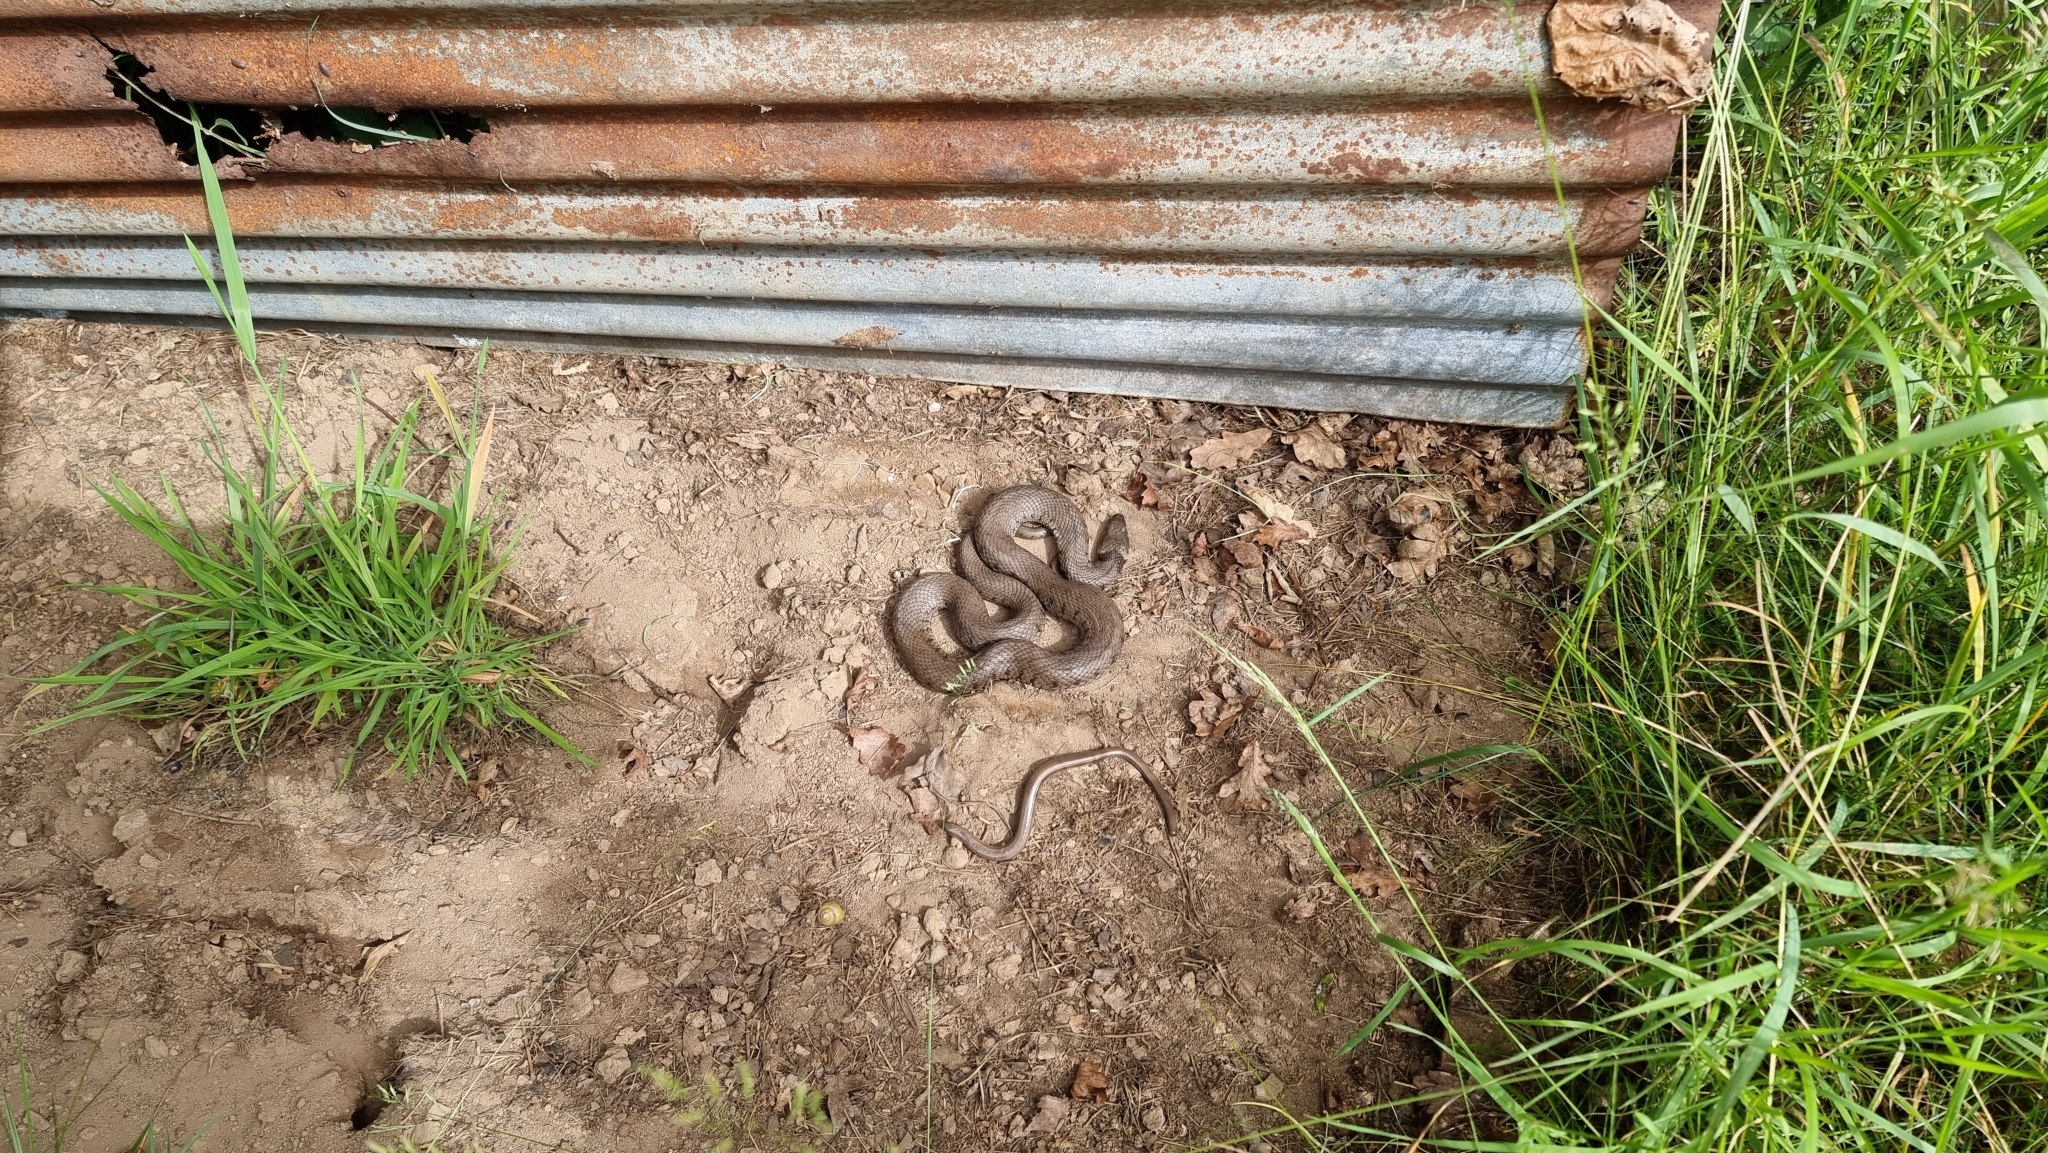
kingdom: Animalia
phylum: Chordata
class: Squamata
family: Colubridae
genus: Natrix
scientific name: Natrix helvetica
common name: Banded grass snake
